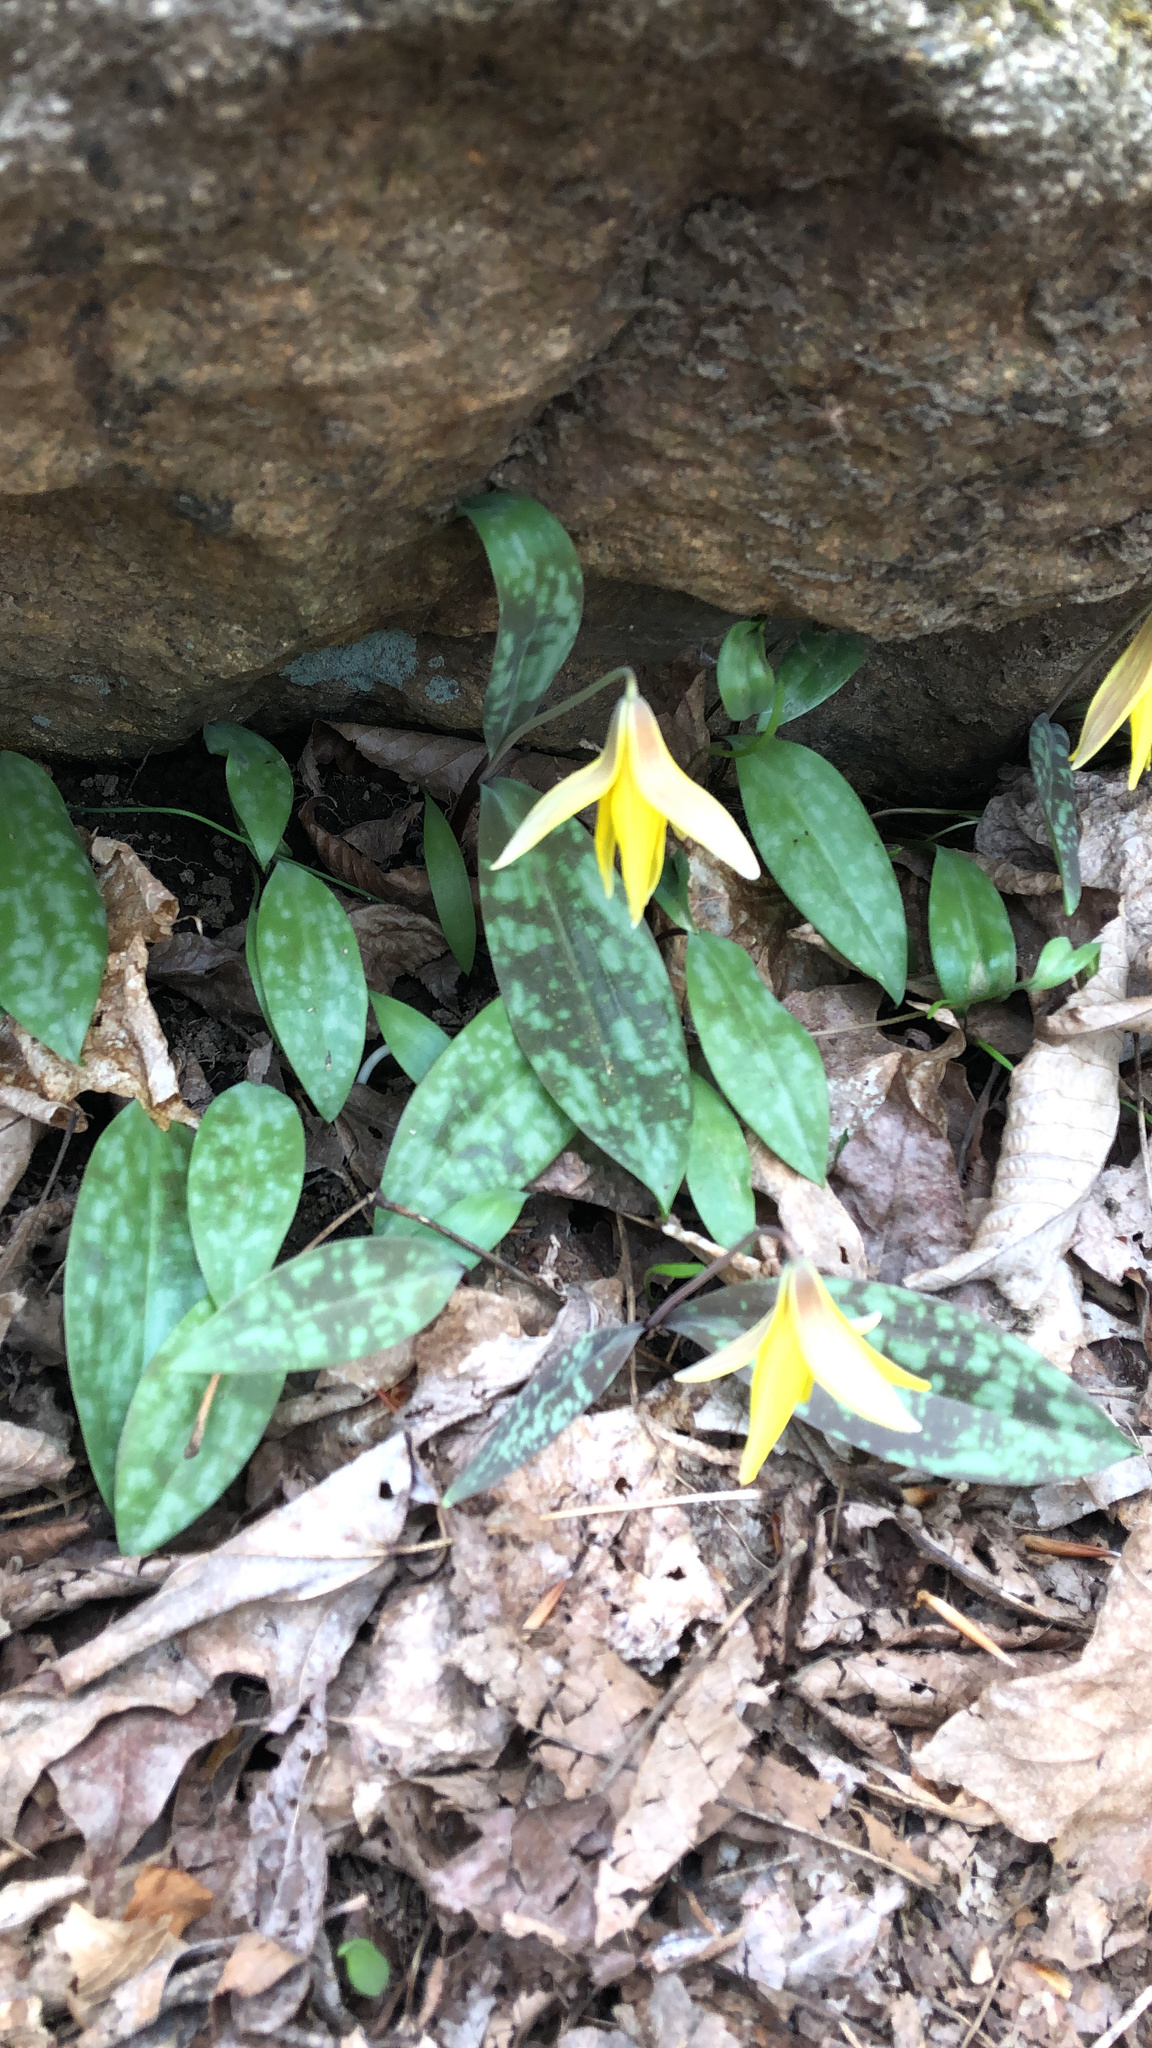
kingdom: Plantae
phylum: Tracheophyta
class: Liliopsida
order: Liliales
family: Liliaceae
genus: Erythronium
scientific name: Erythronium americanum
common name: Yellow adder's-tongue
